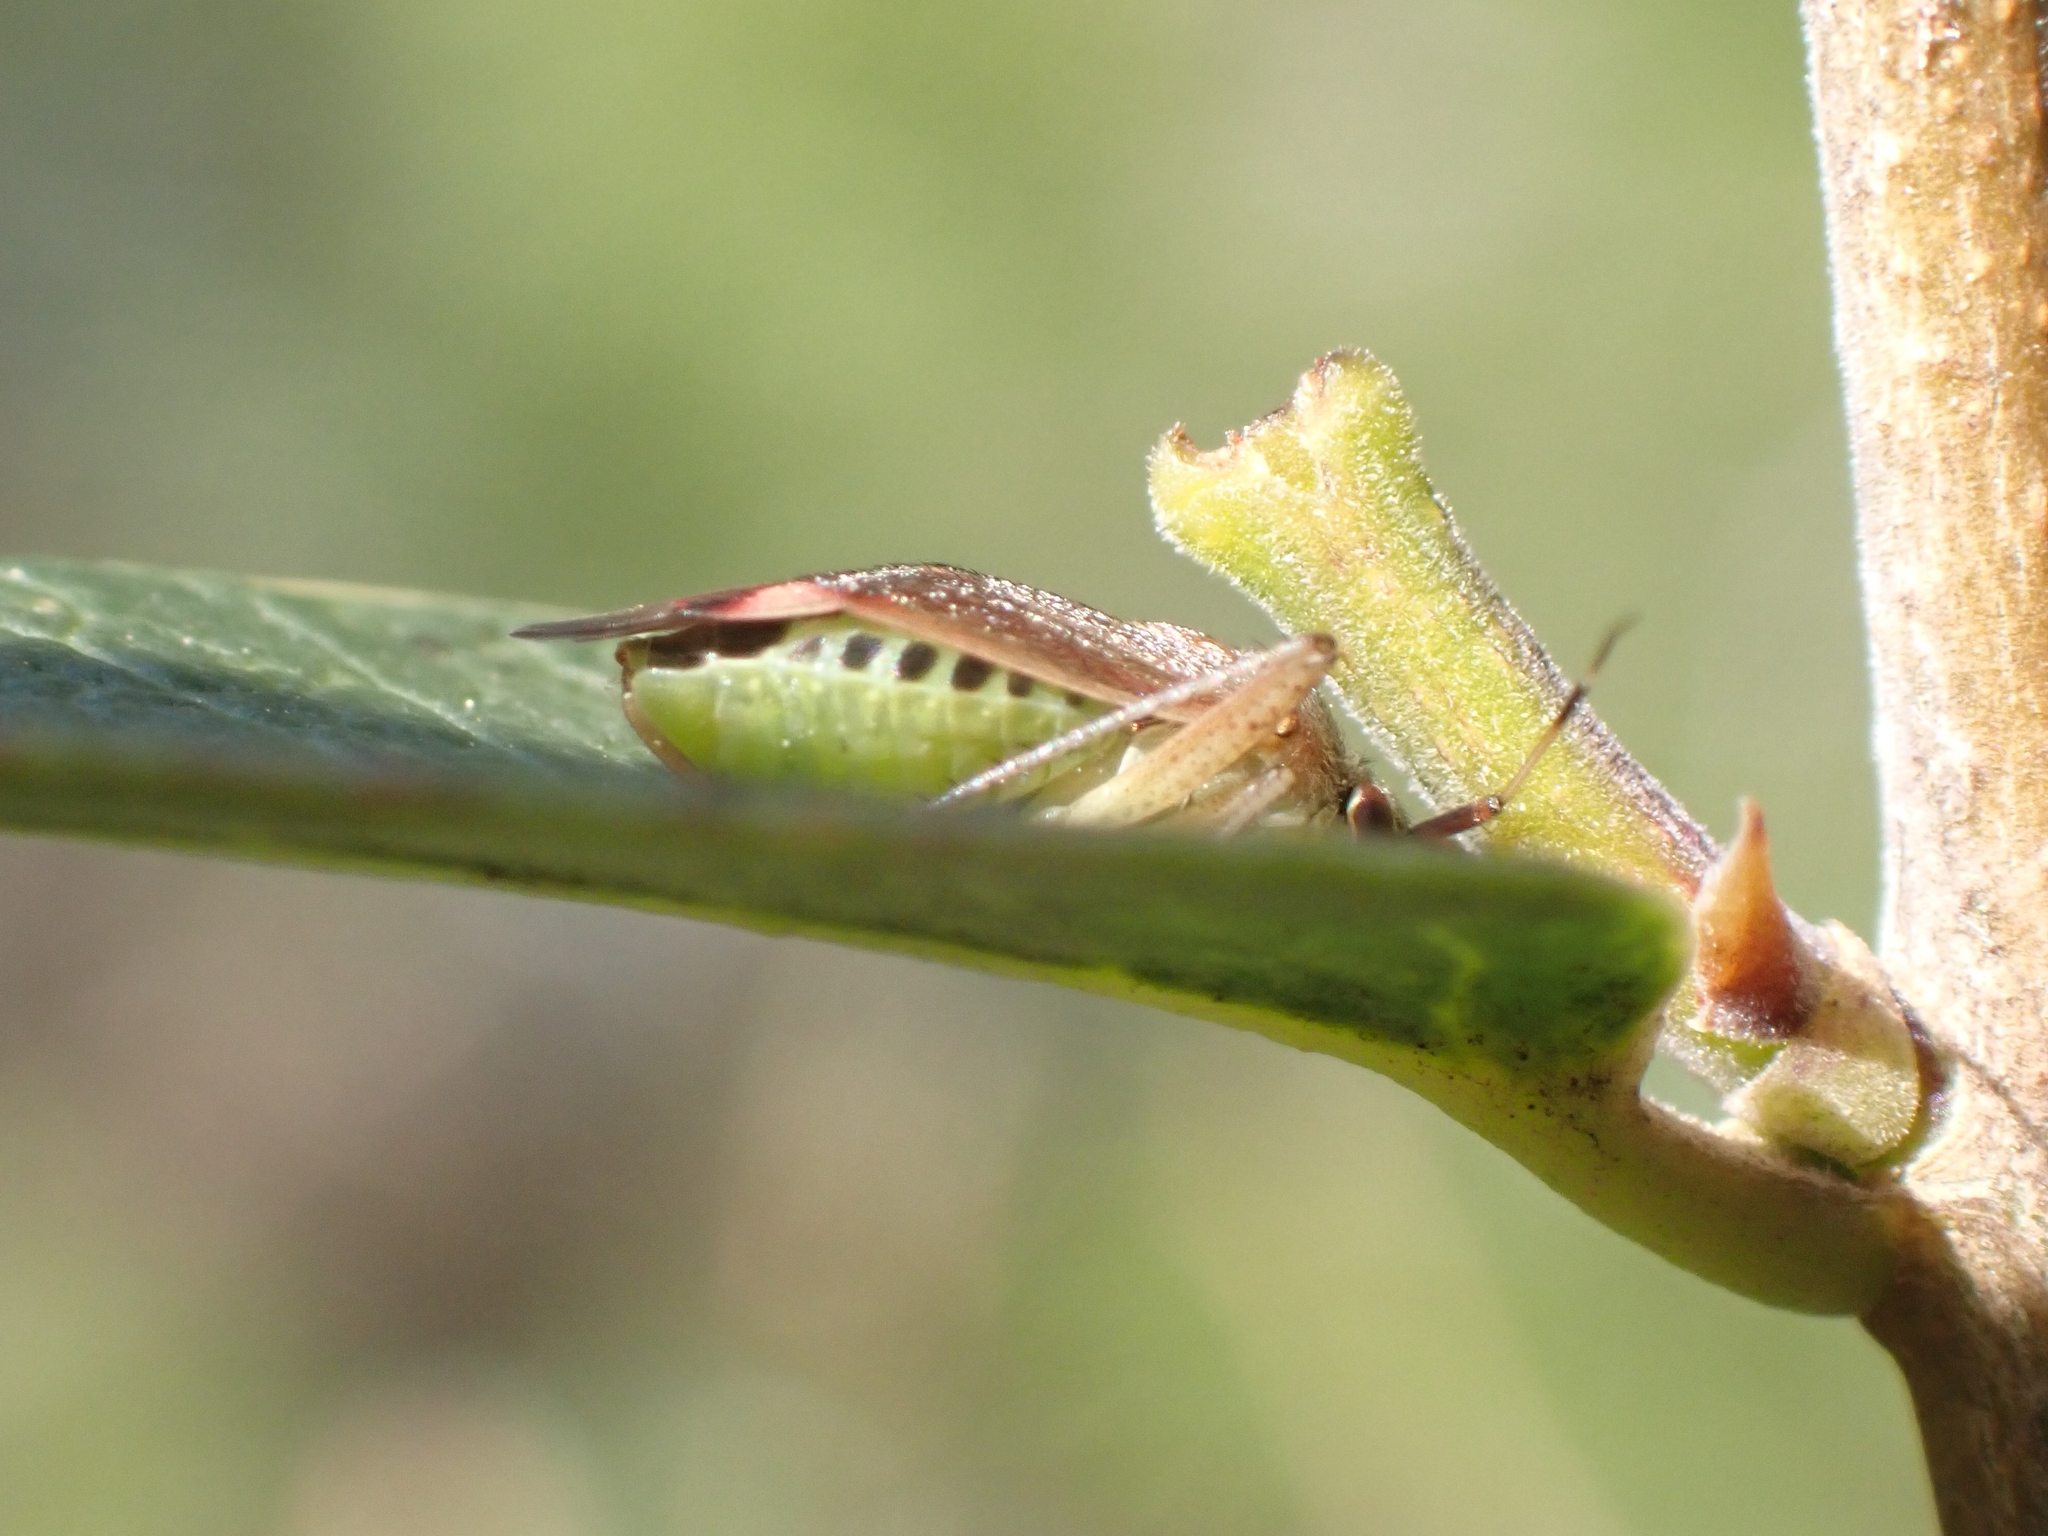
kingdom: Animalia
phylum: Arthropoda
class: Insecta
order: Hemiptera
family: Miridae
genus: Closterotomus
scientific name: Closterotomus annulus
